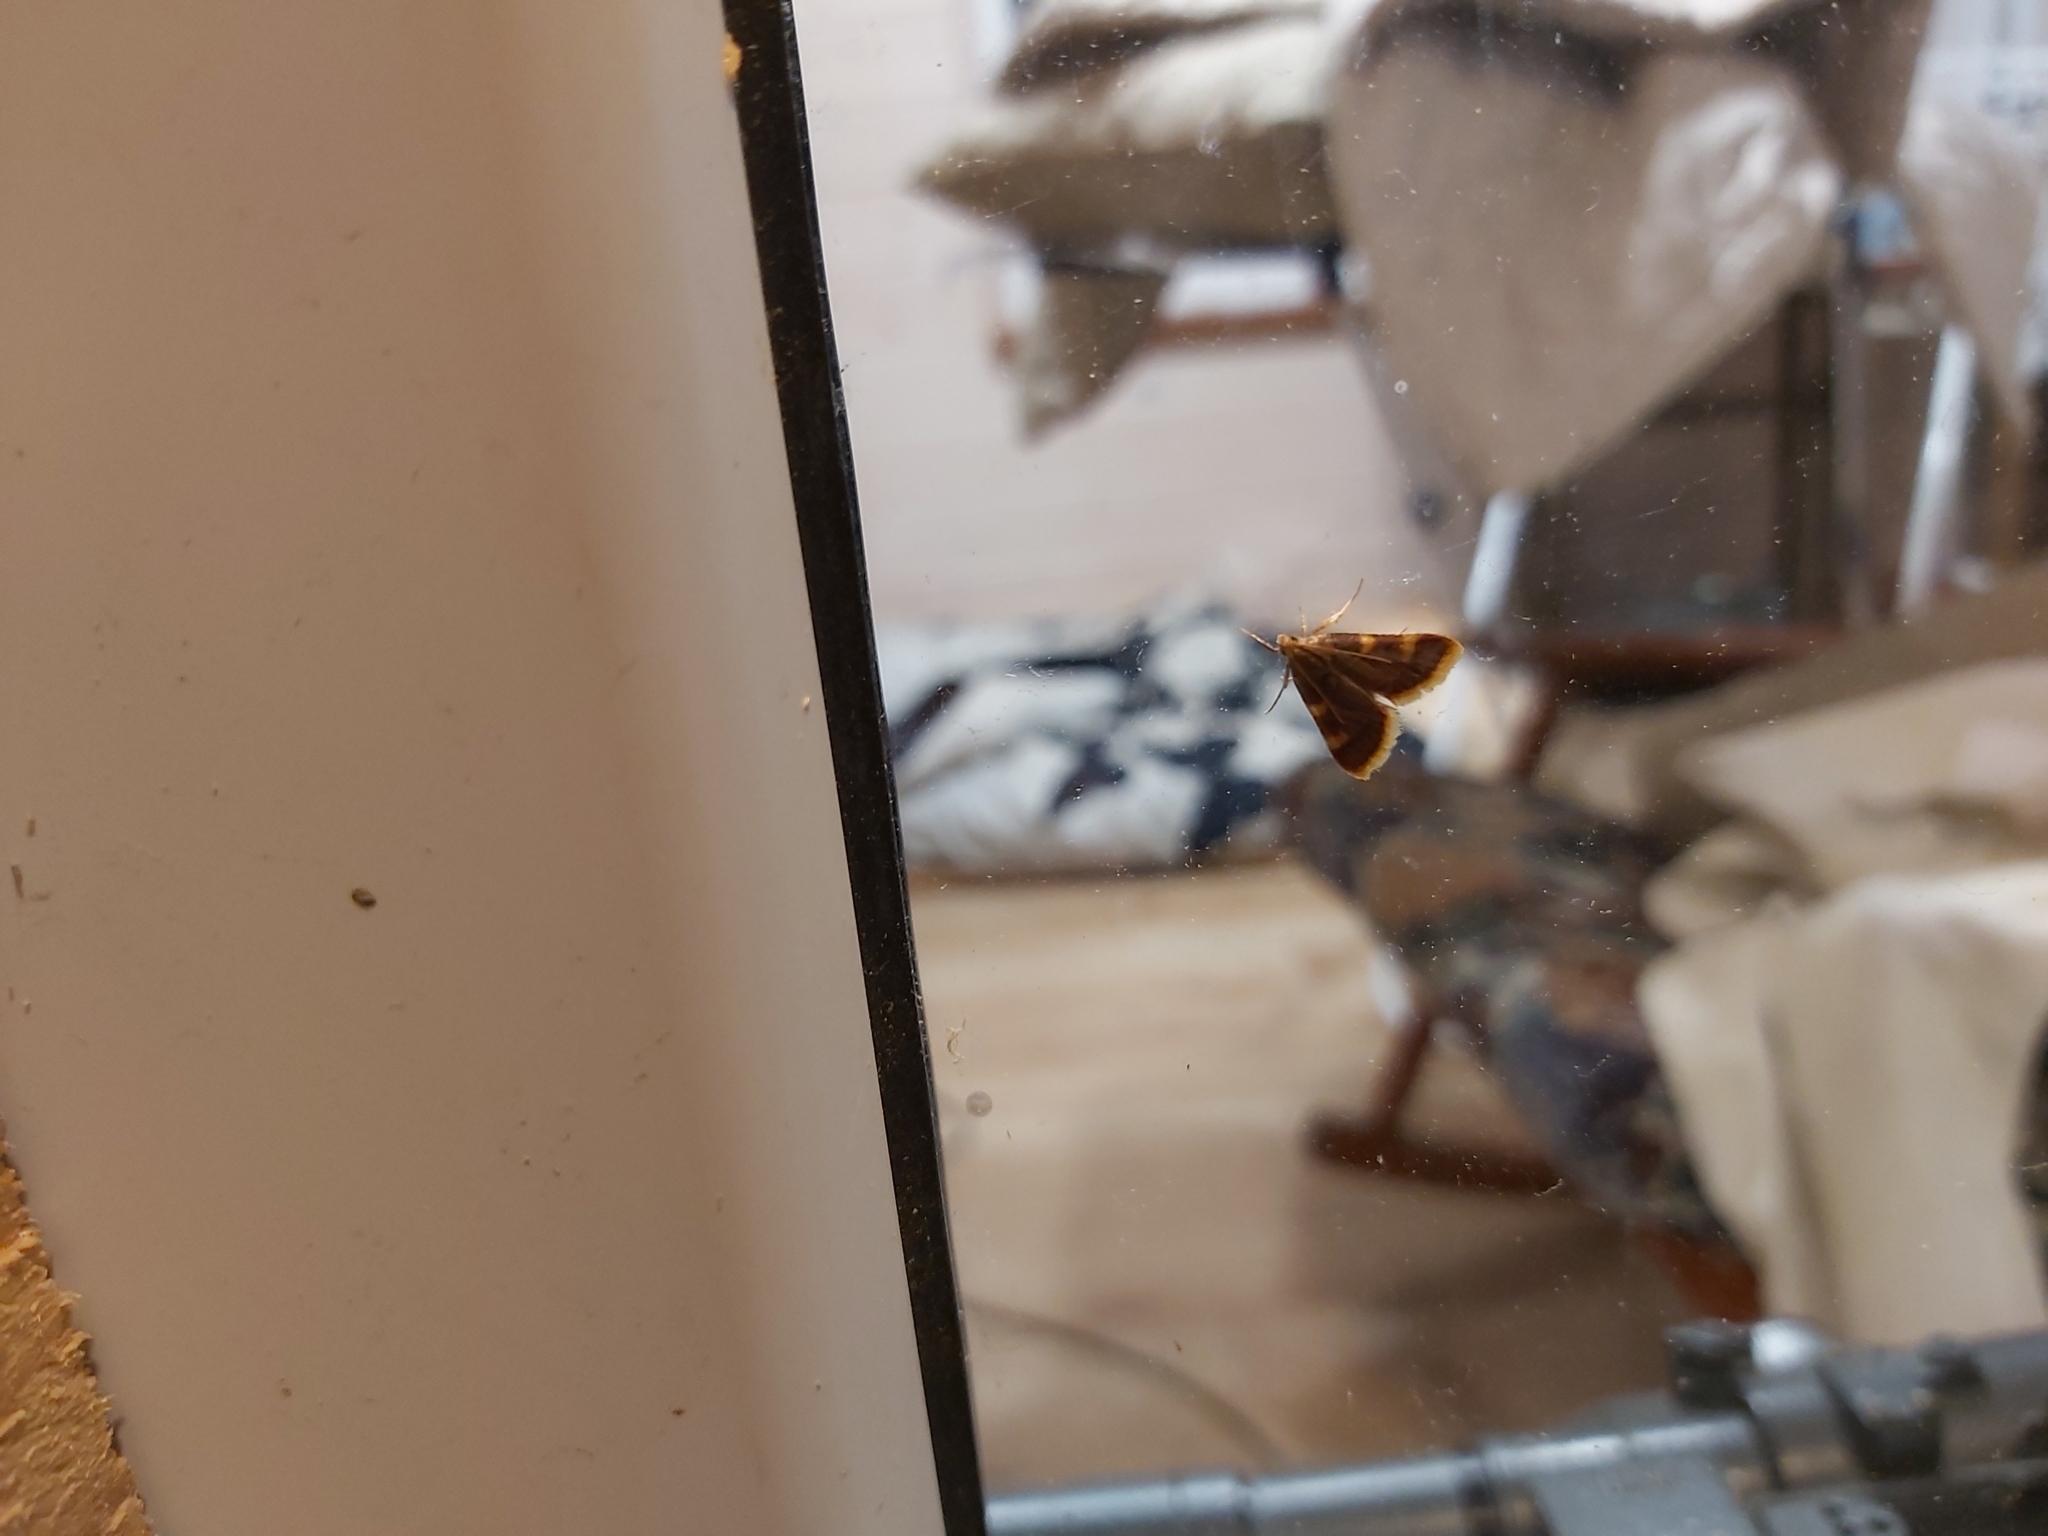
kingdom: Animalia
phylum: Arthropoda
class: Insecta
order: Lepidoptera
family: Pyralidae
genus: Hypsopygia
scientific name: Hypsopygia costalis
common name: Gold triangle
